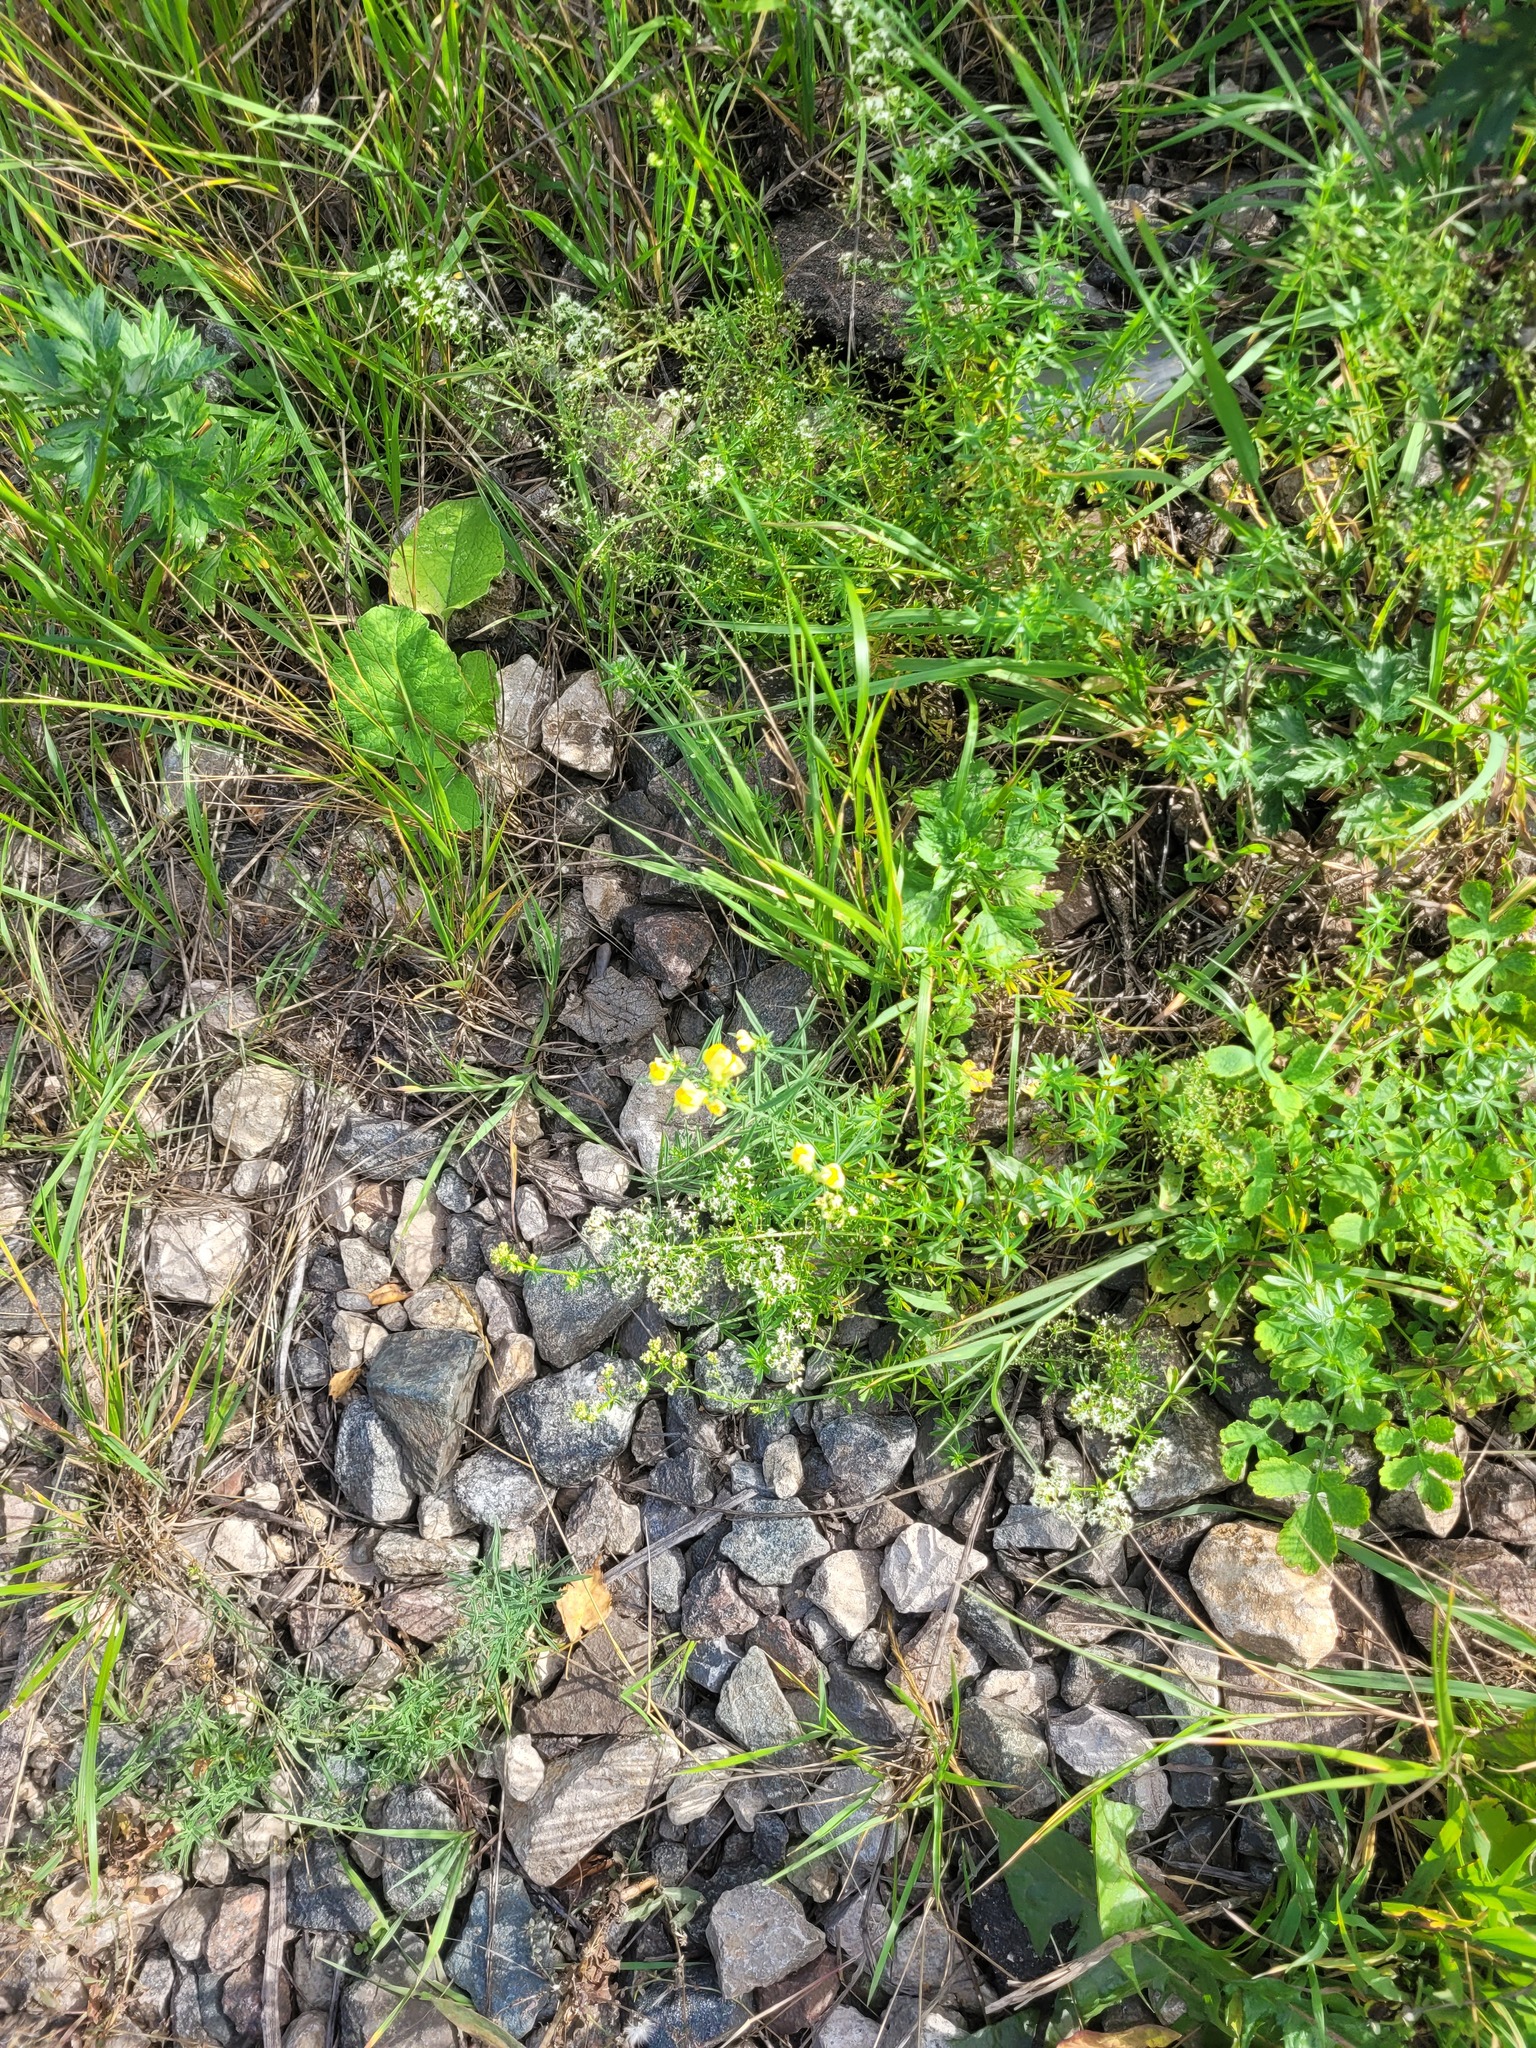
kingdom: Plantae
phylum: Tracheophyta
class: Magnoliopsida
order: Lamiales
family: Plantaginaceae
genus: Linaria
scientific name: Linaria vulgaris
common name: Butter and eggs
